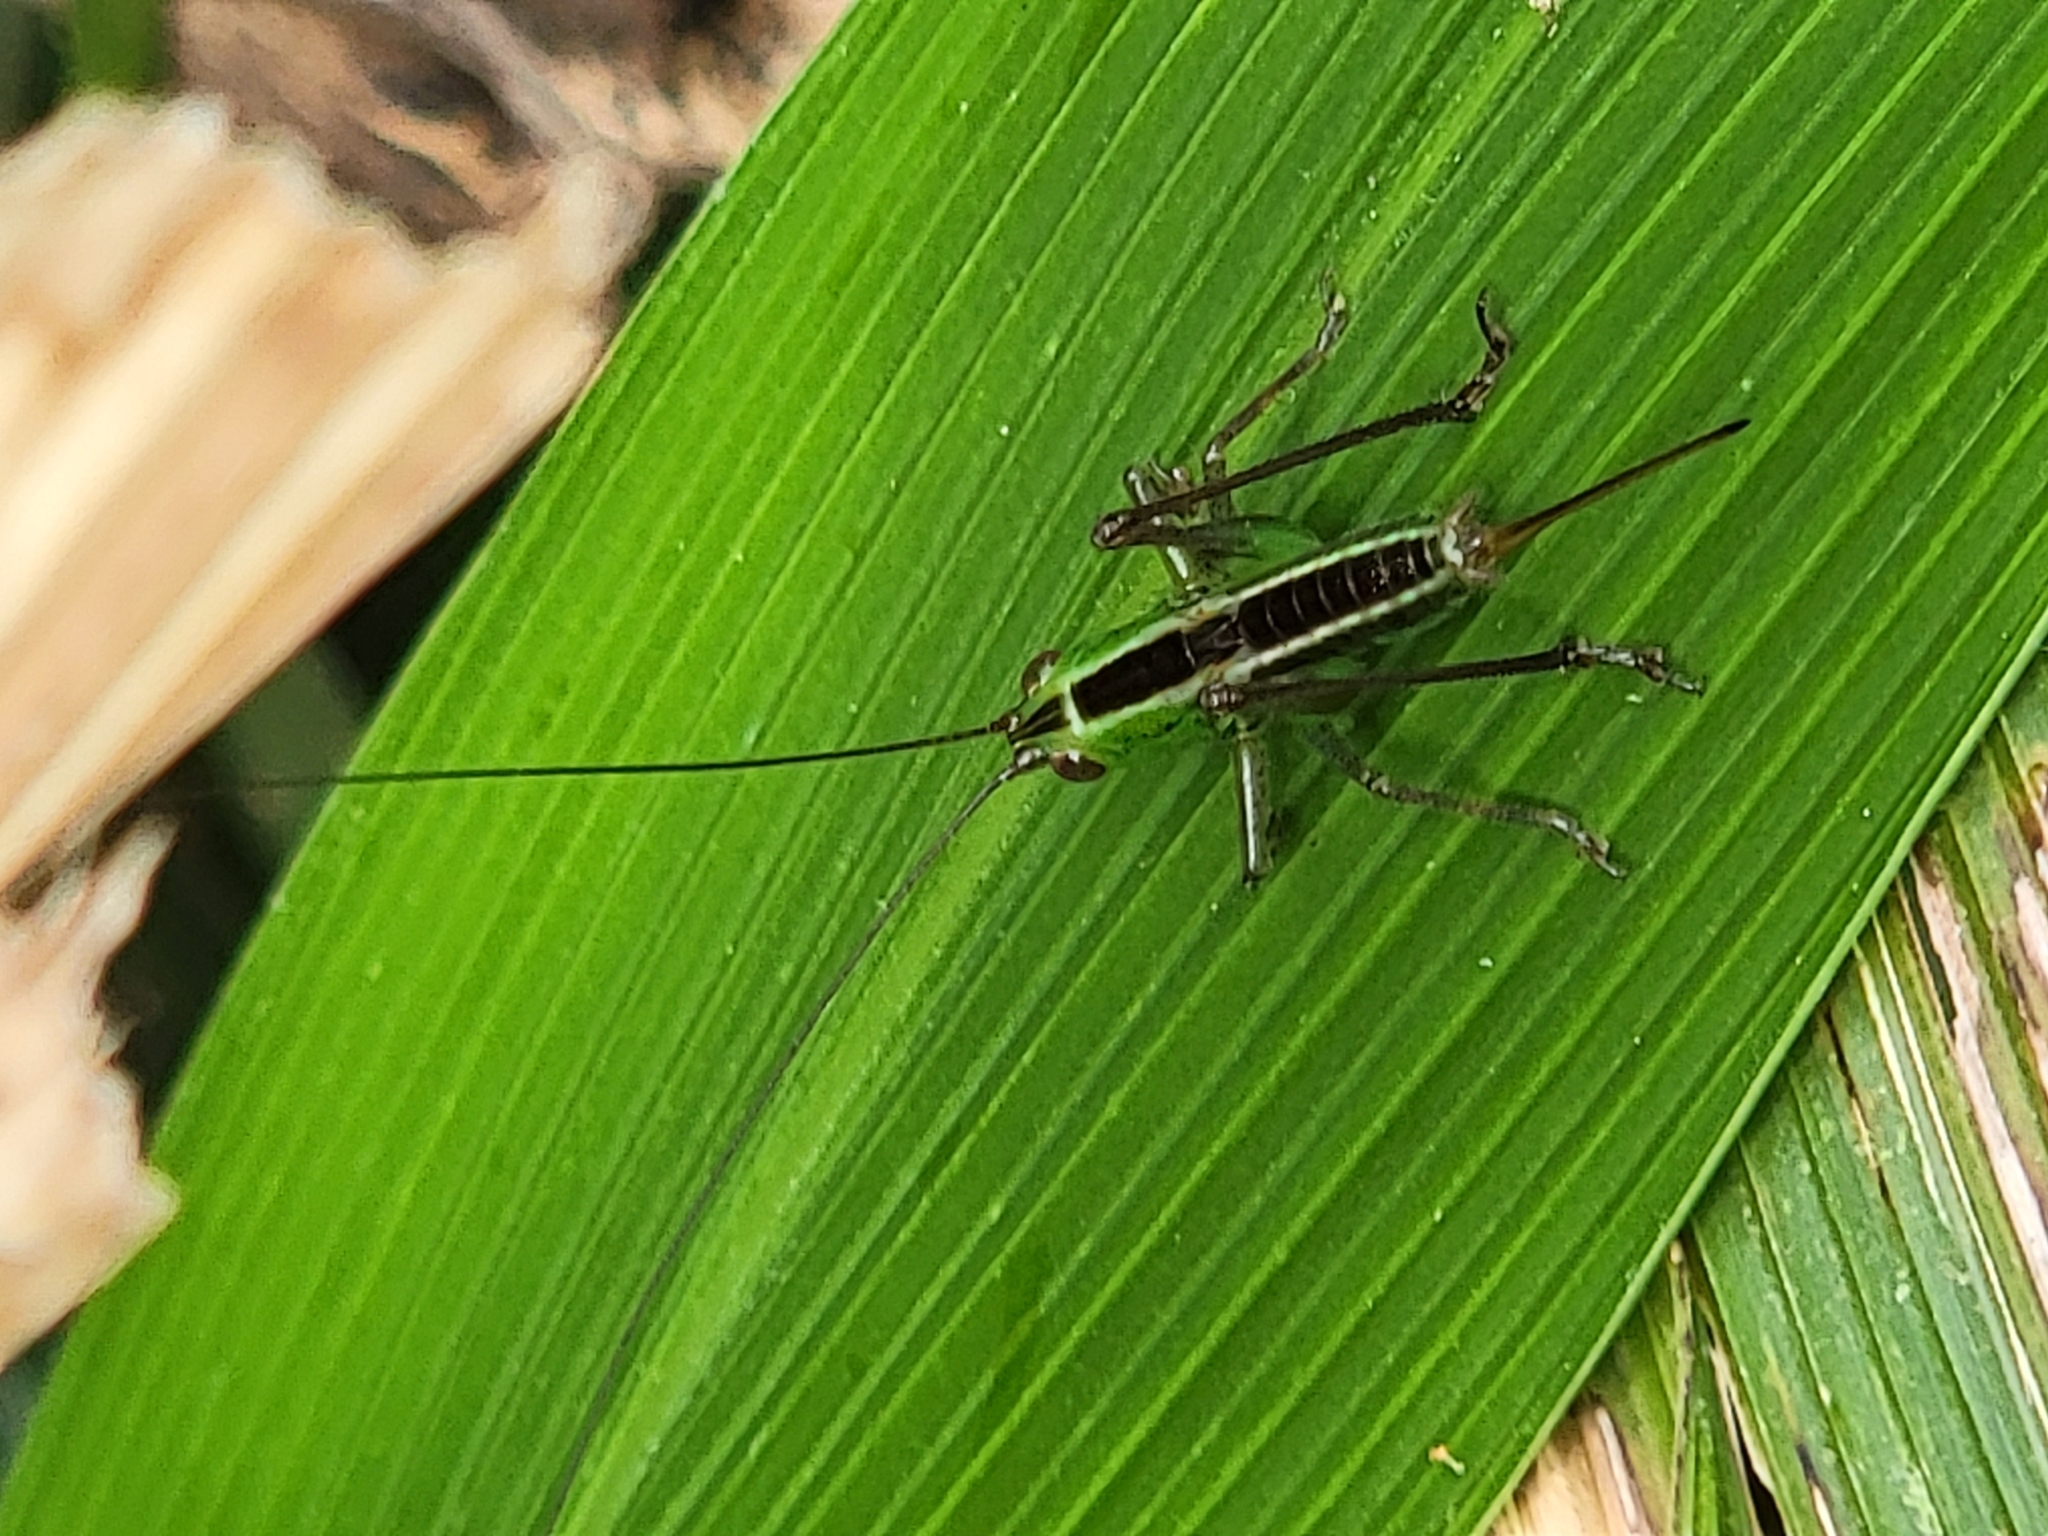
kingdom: Animalia
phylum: Arthropoda
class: Insecta
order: Orthoptera
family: Tettigoniidae
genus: Conocephalus
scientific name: Conocephalus saltator
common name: Katydid
